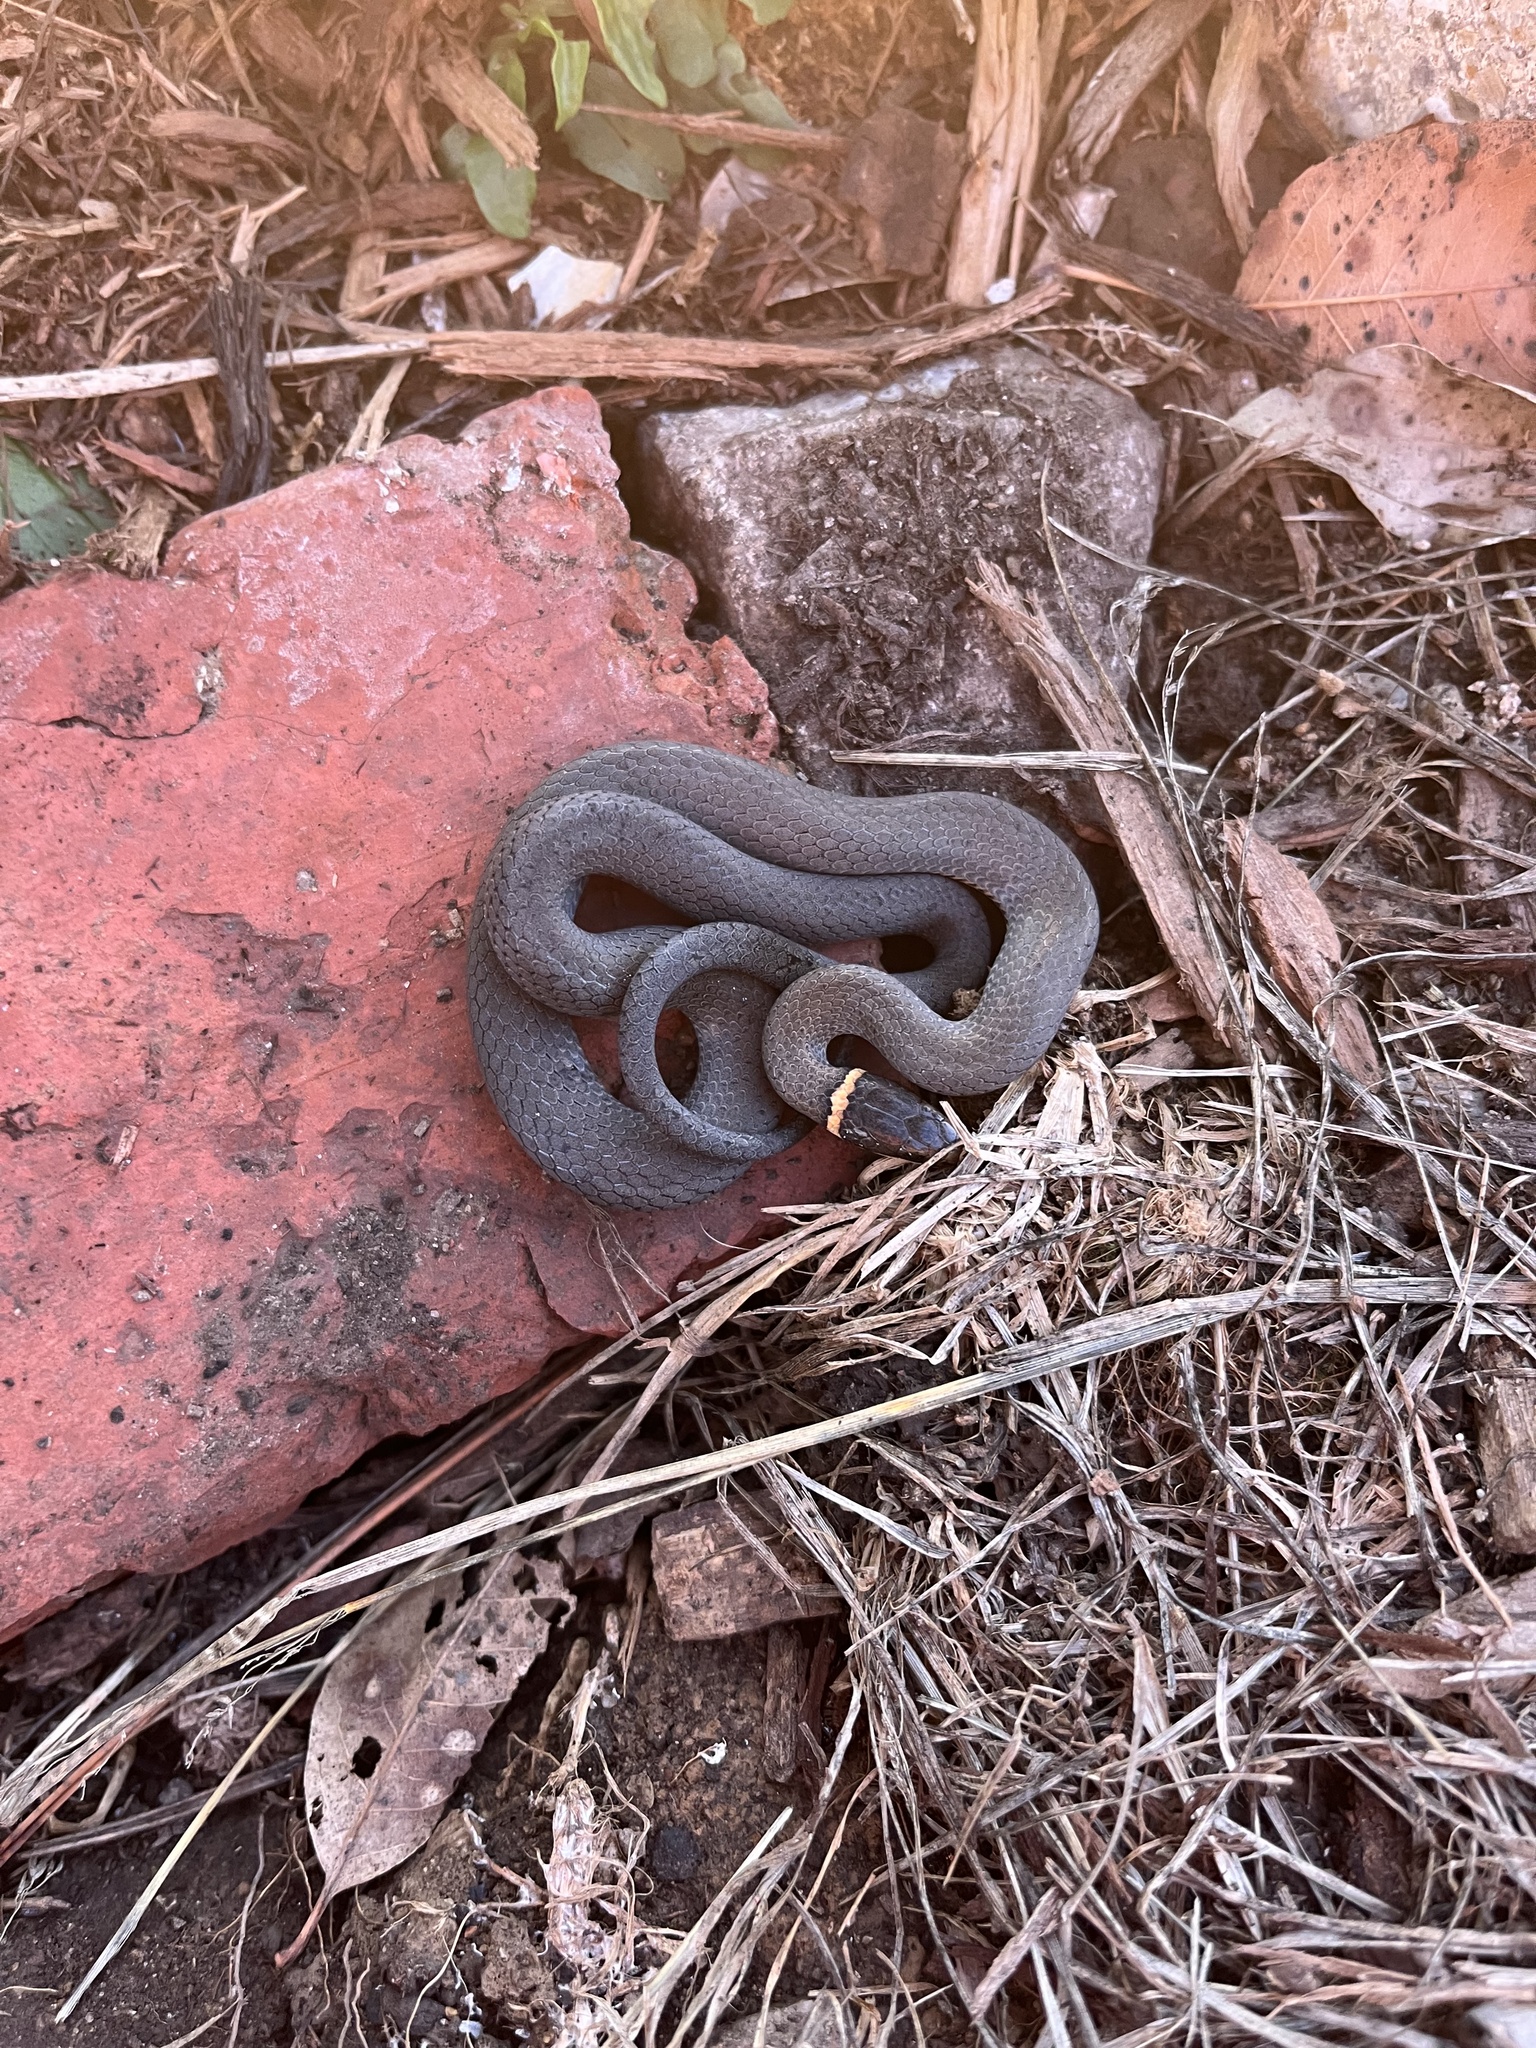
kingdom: Animalia
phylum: Chordata
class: Squamata
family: Colubridae
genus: Diadophis
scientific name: Diadophis punctatus
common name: Ringneck snake
